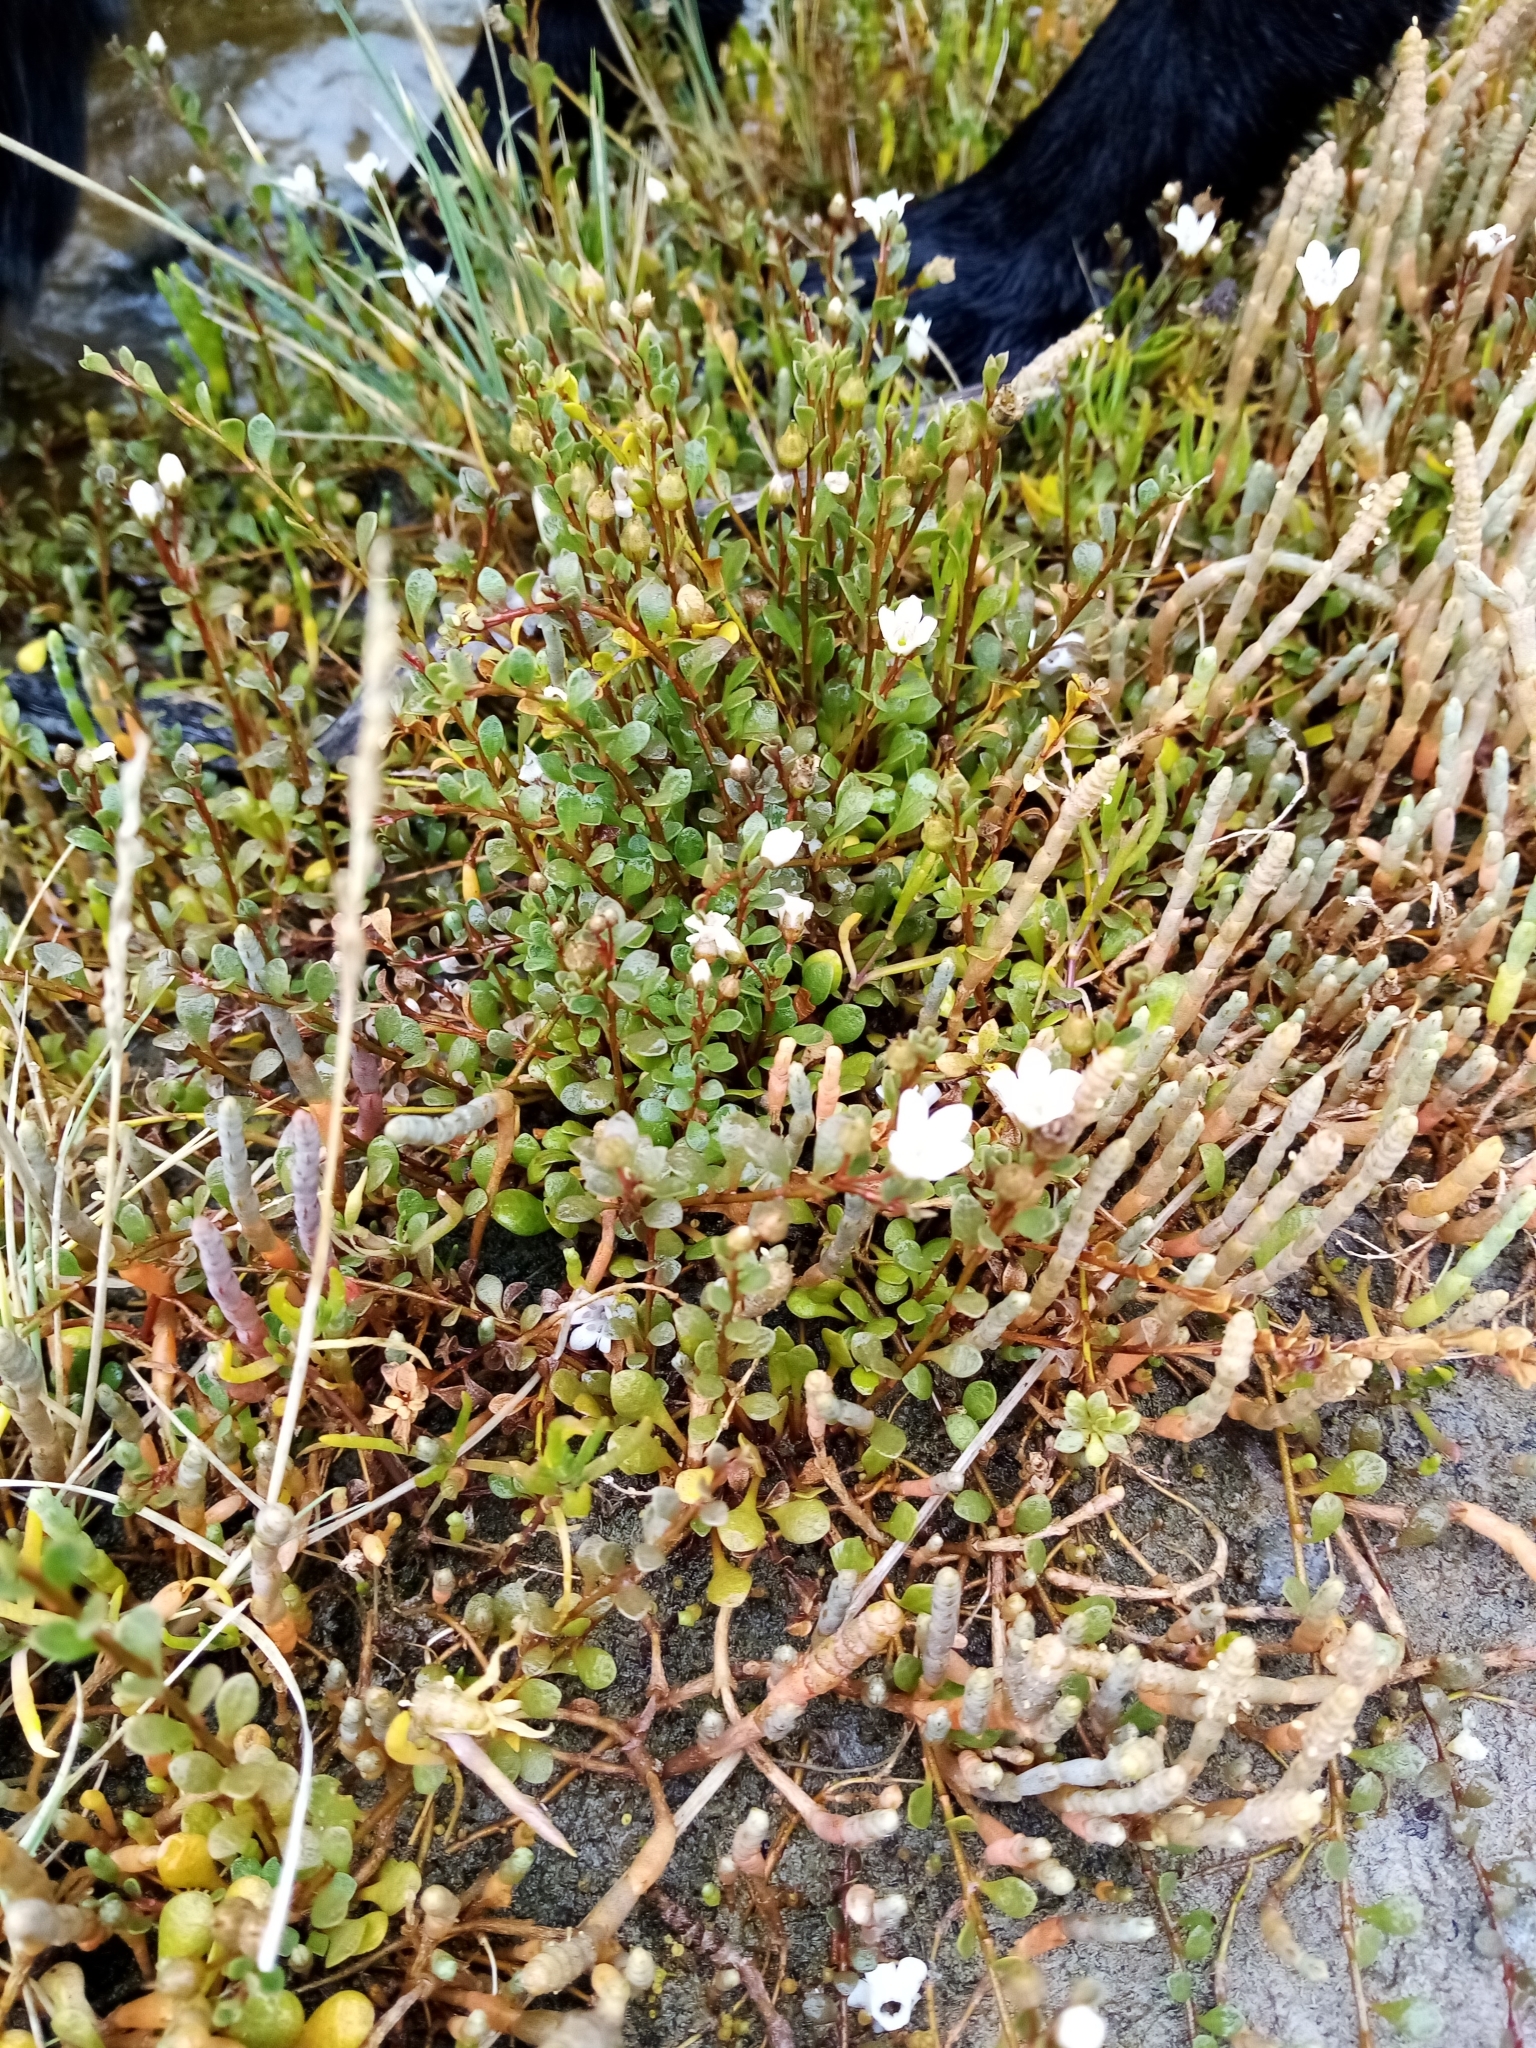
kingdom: Plantae
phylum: Tracheophyta
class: Magnoliopsida
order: Ericales
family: Primulaceae
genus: Samolus
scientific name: Samolus repens
